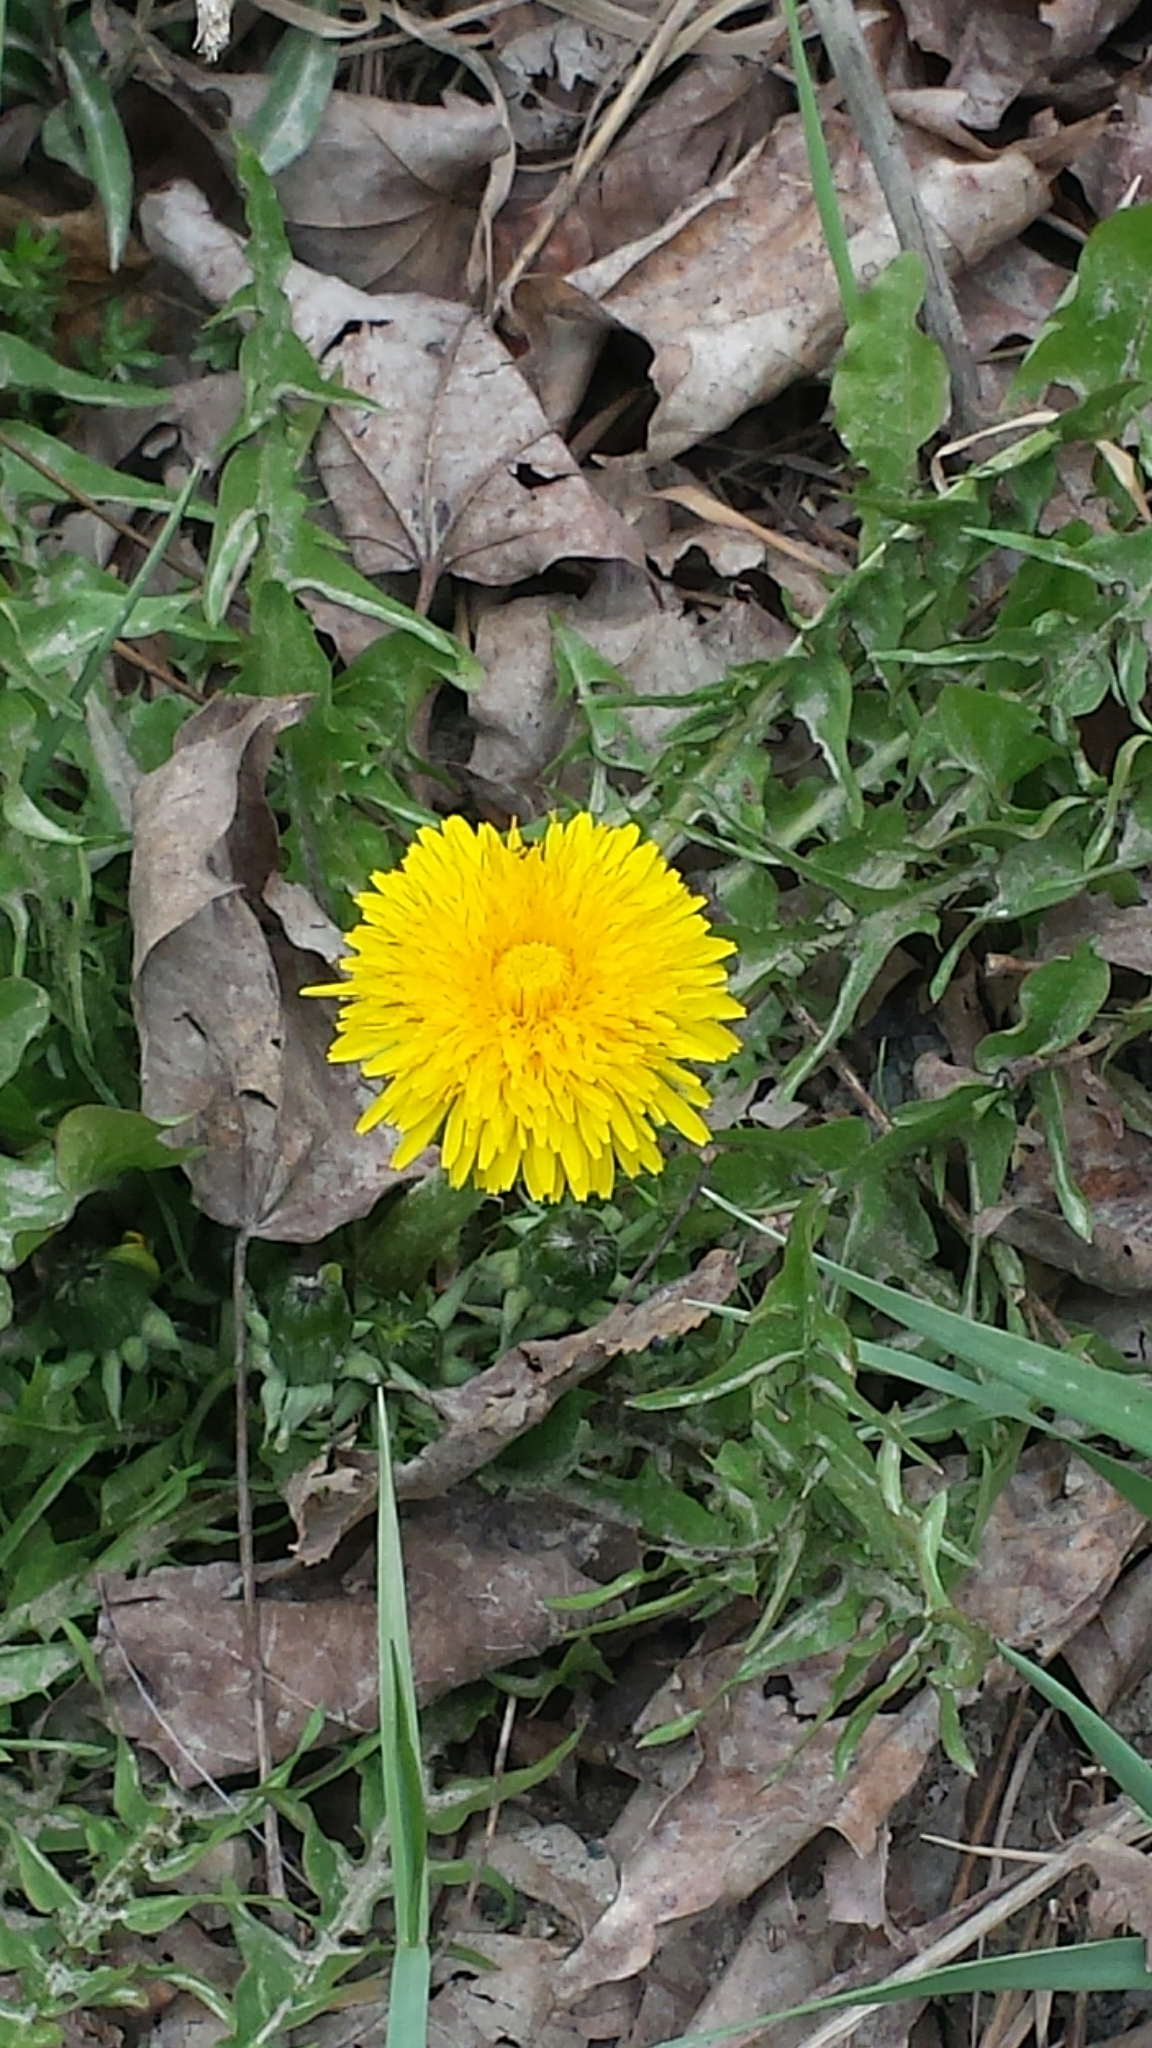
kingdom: Plantae
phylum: Tracheophyta
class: Magnoliopsida
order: Asterales
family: Asteraceae
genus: Taraxacum
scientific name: Taraxacum officinale
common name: Common dandelion
